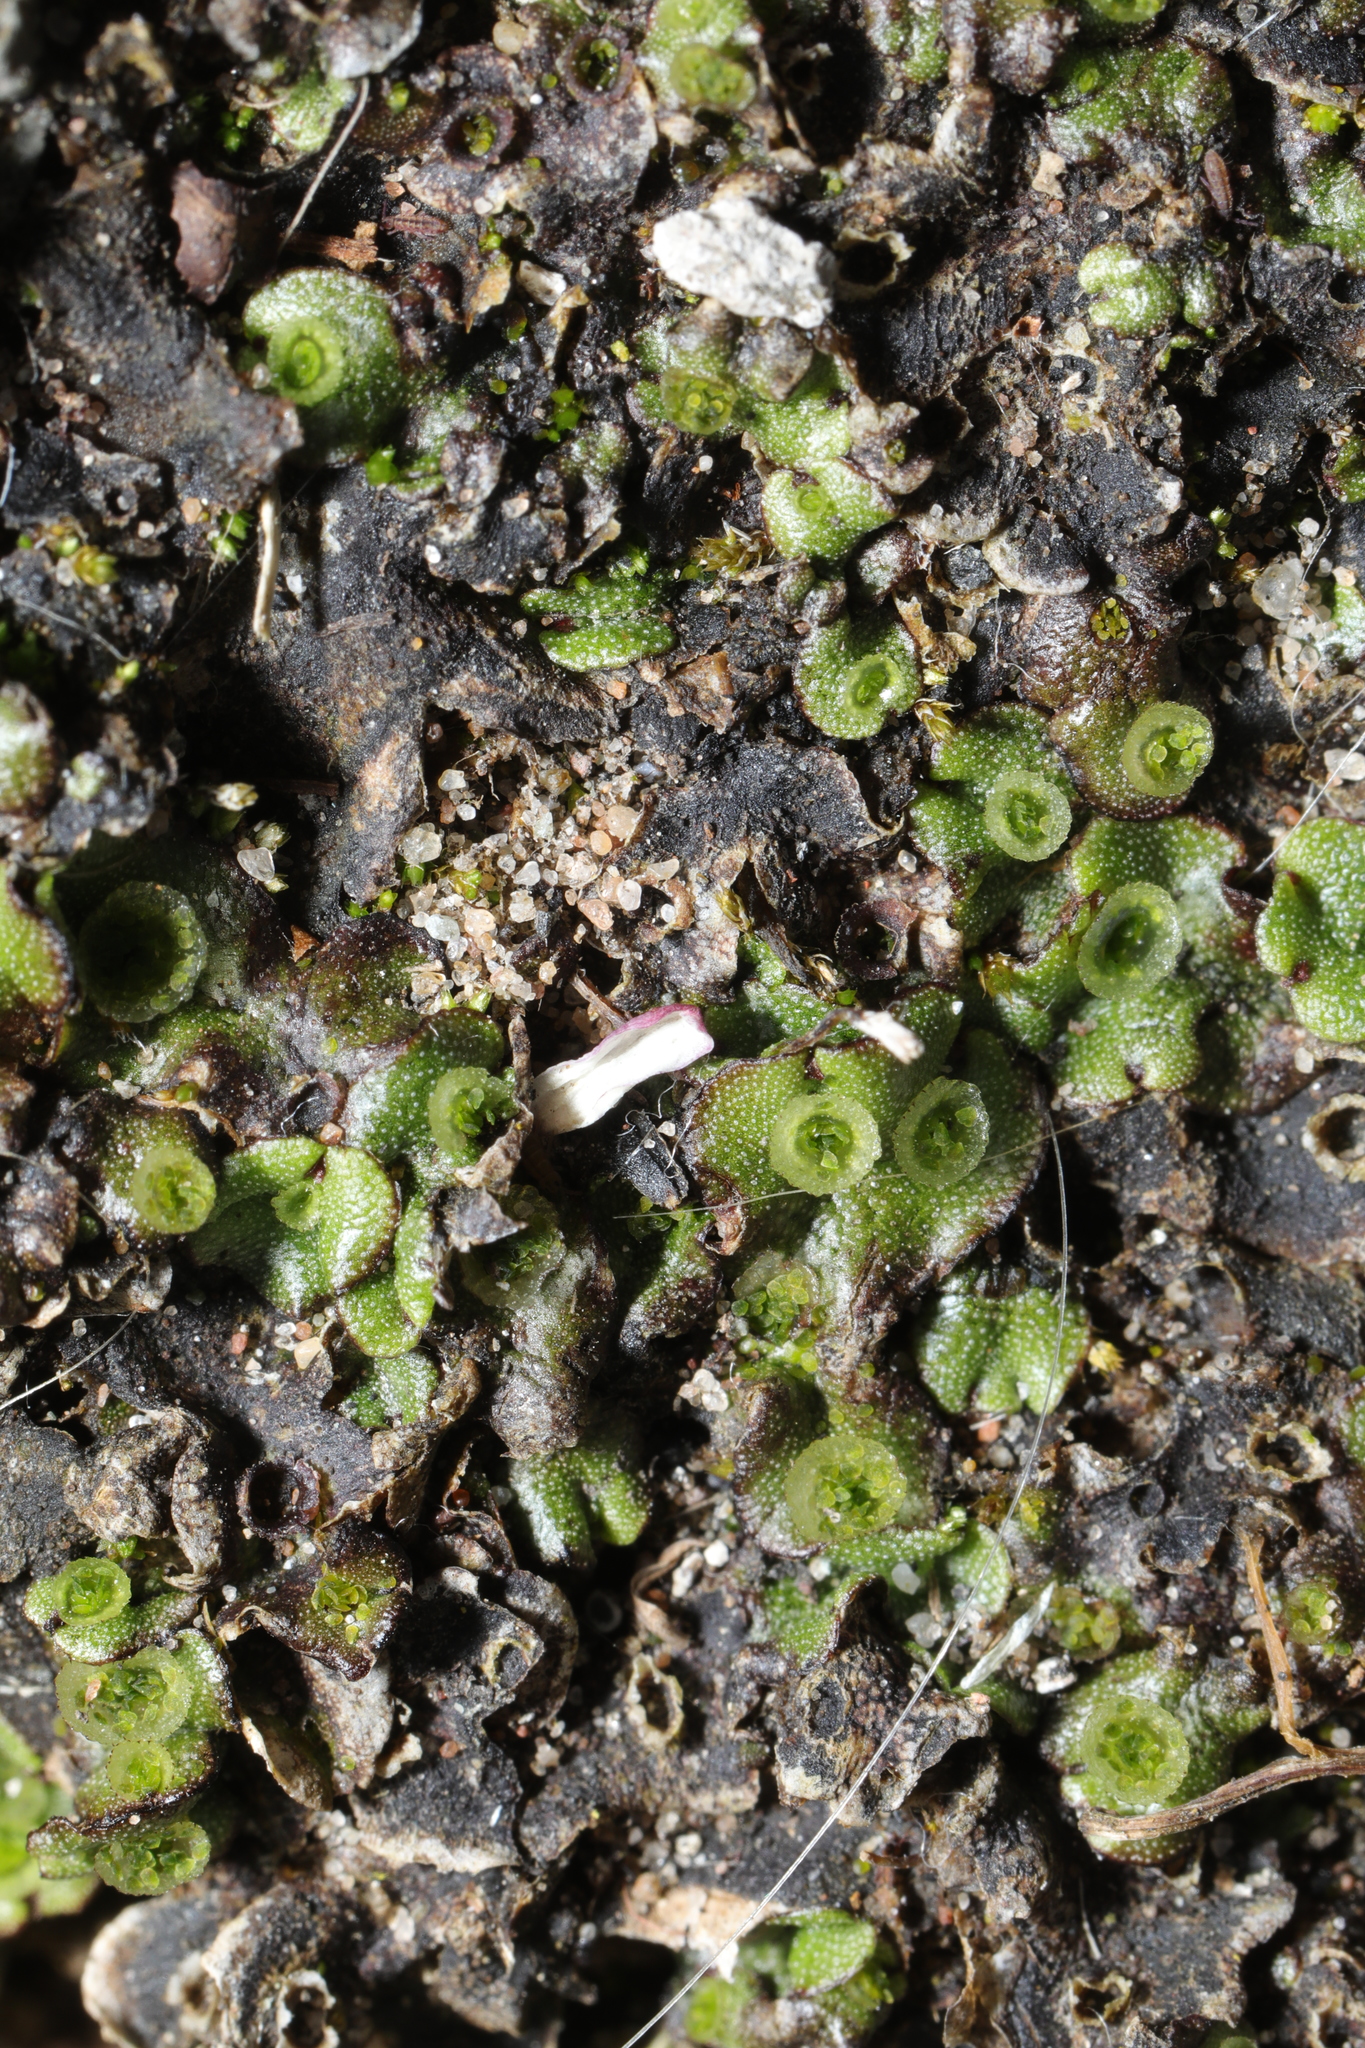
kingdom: Plantae
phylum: Marchantiophyta
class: Marchantiopsida
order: Marchantiales
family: Marchantiaceae
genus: Marchantia
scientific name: Marchantia polymorpha
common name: Common liverwort
